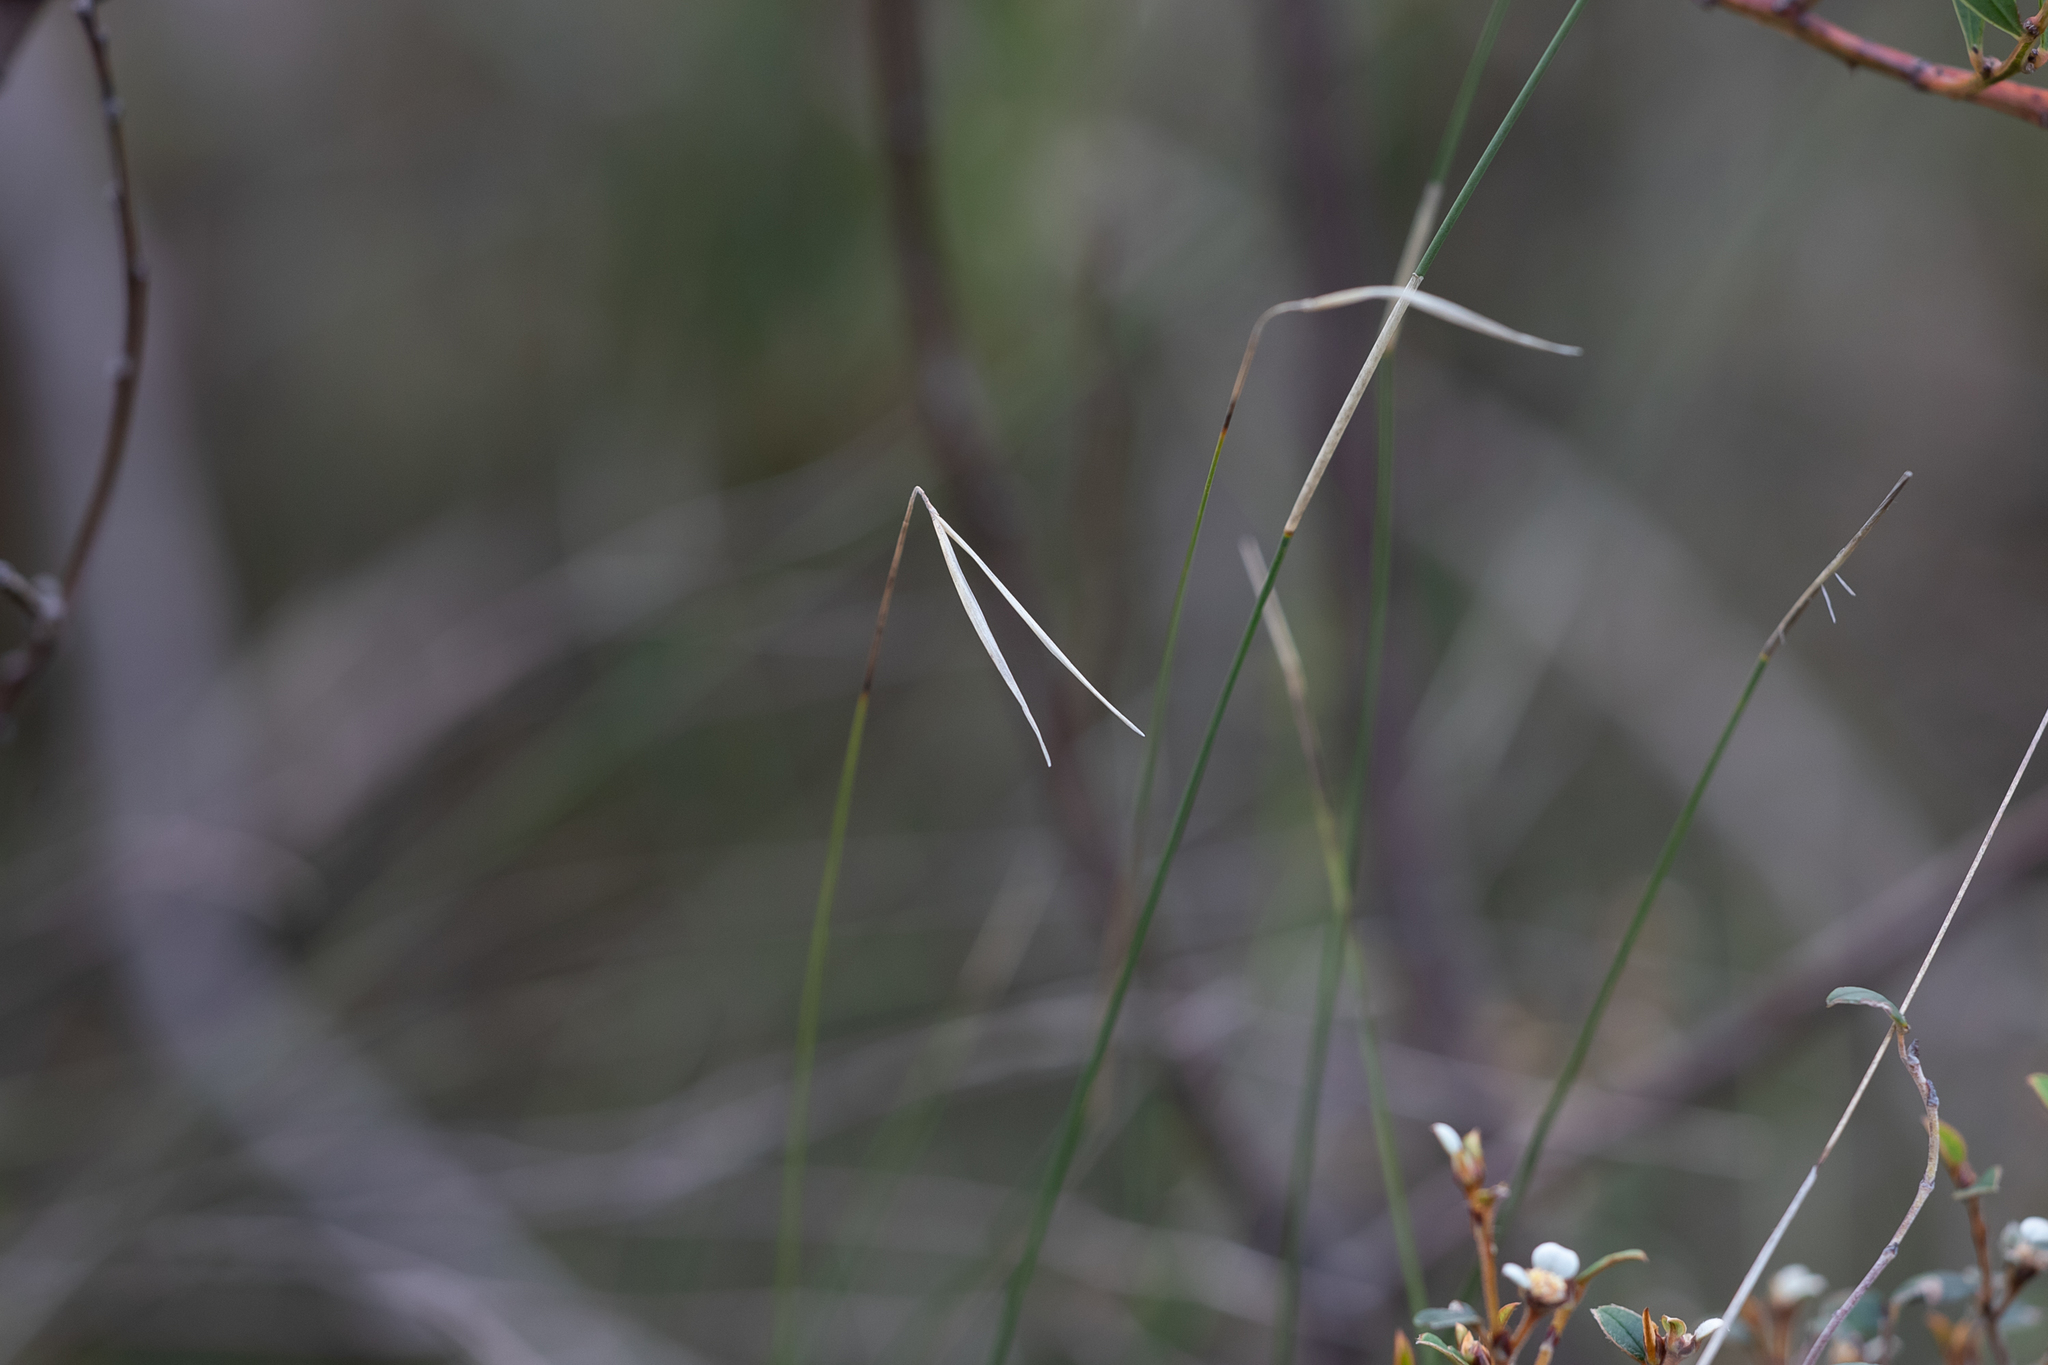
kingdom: Plantae
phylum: Tracheophyta
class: Liliopsida
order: Poales
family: Poaceae
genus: Austrostipa
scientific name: Austrostipa muelleri
